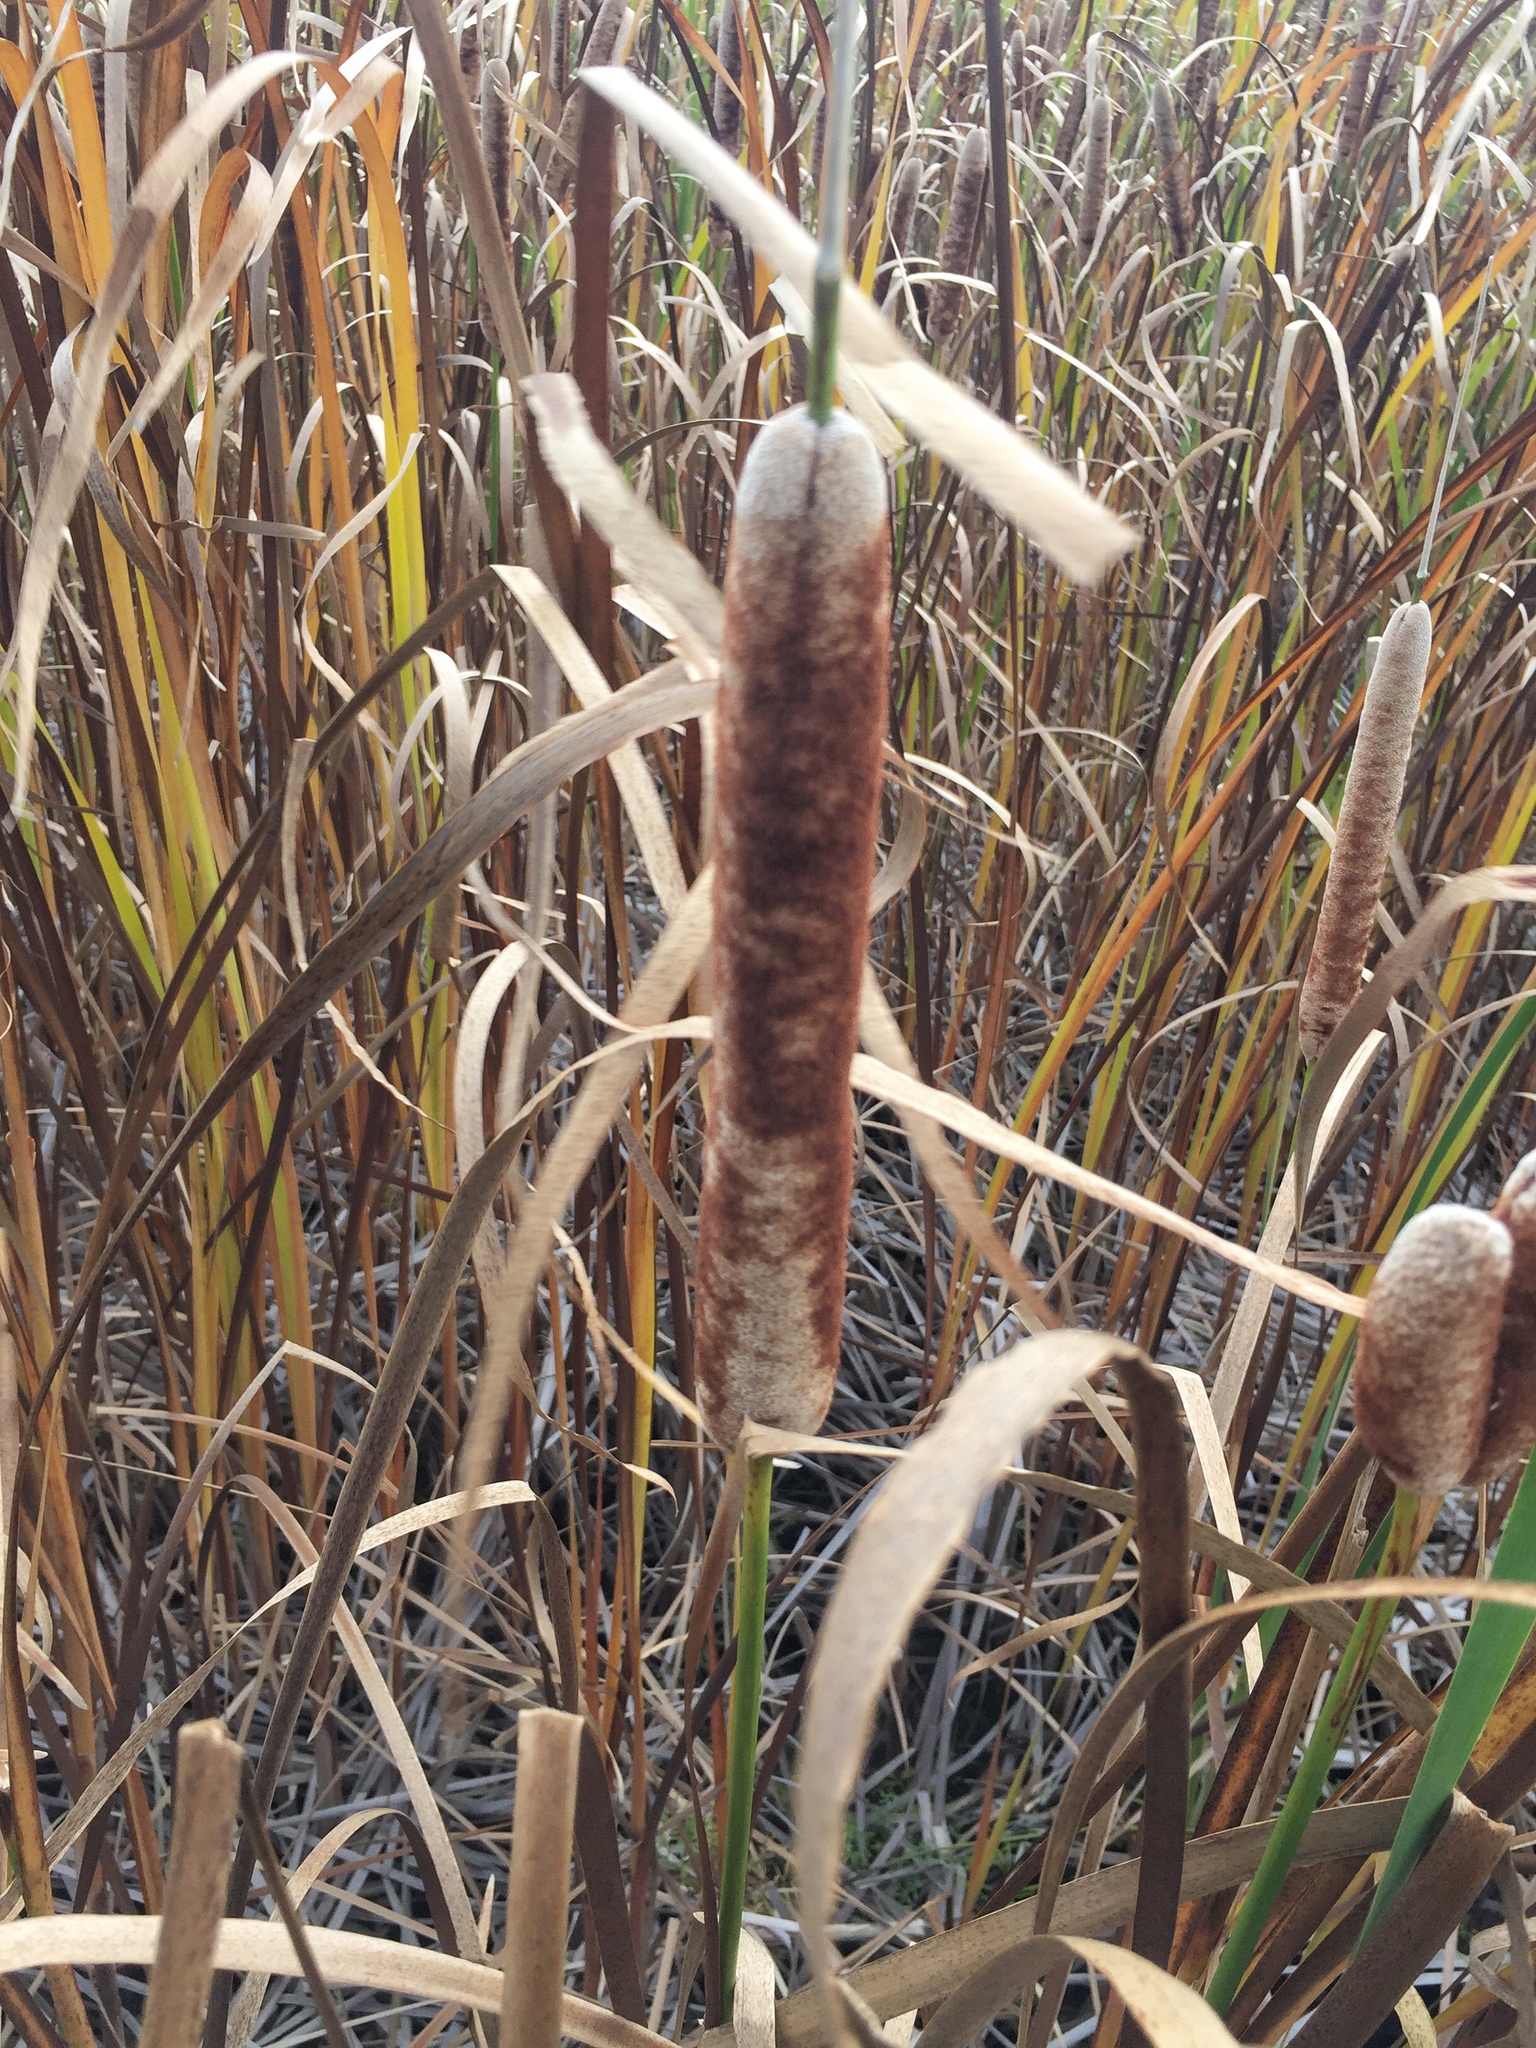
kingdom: Plantae
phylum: Tracheophyta
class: Liliopsida
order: Poales
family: Typhaceae
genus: Typha
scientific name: Typha latifolia
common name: Broadleaf cattail
